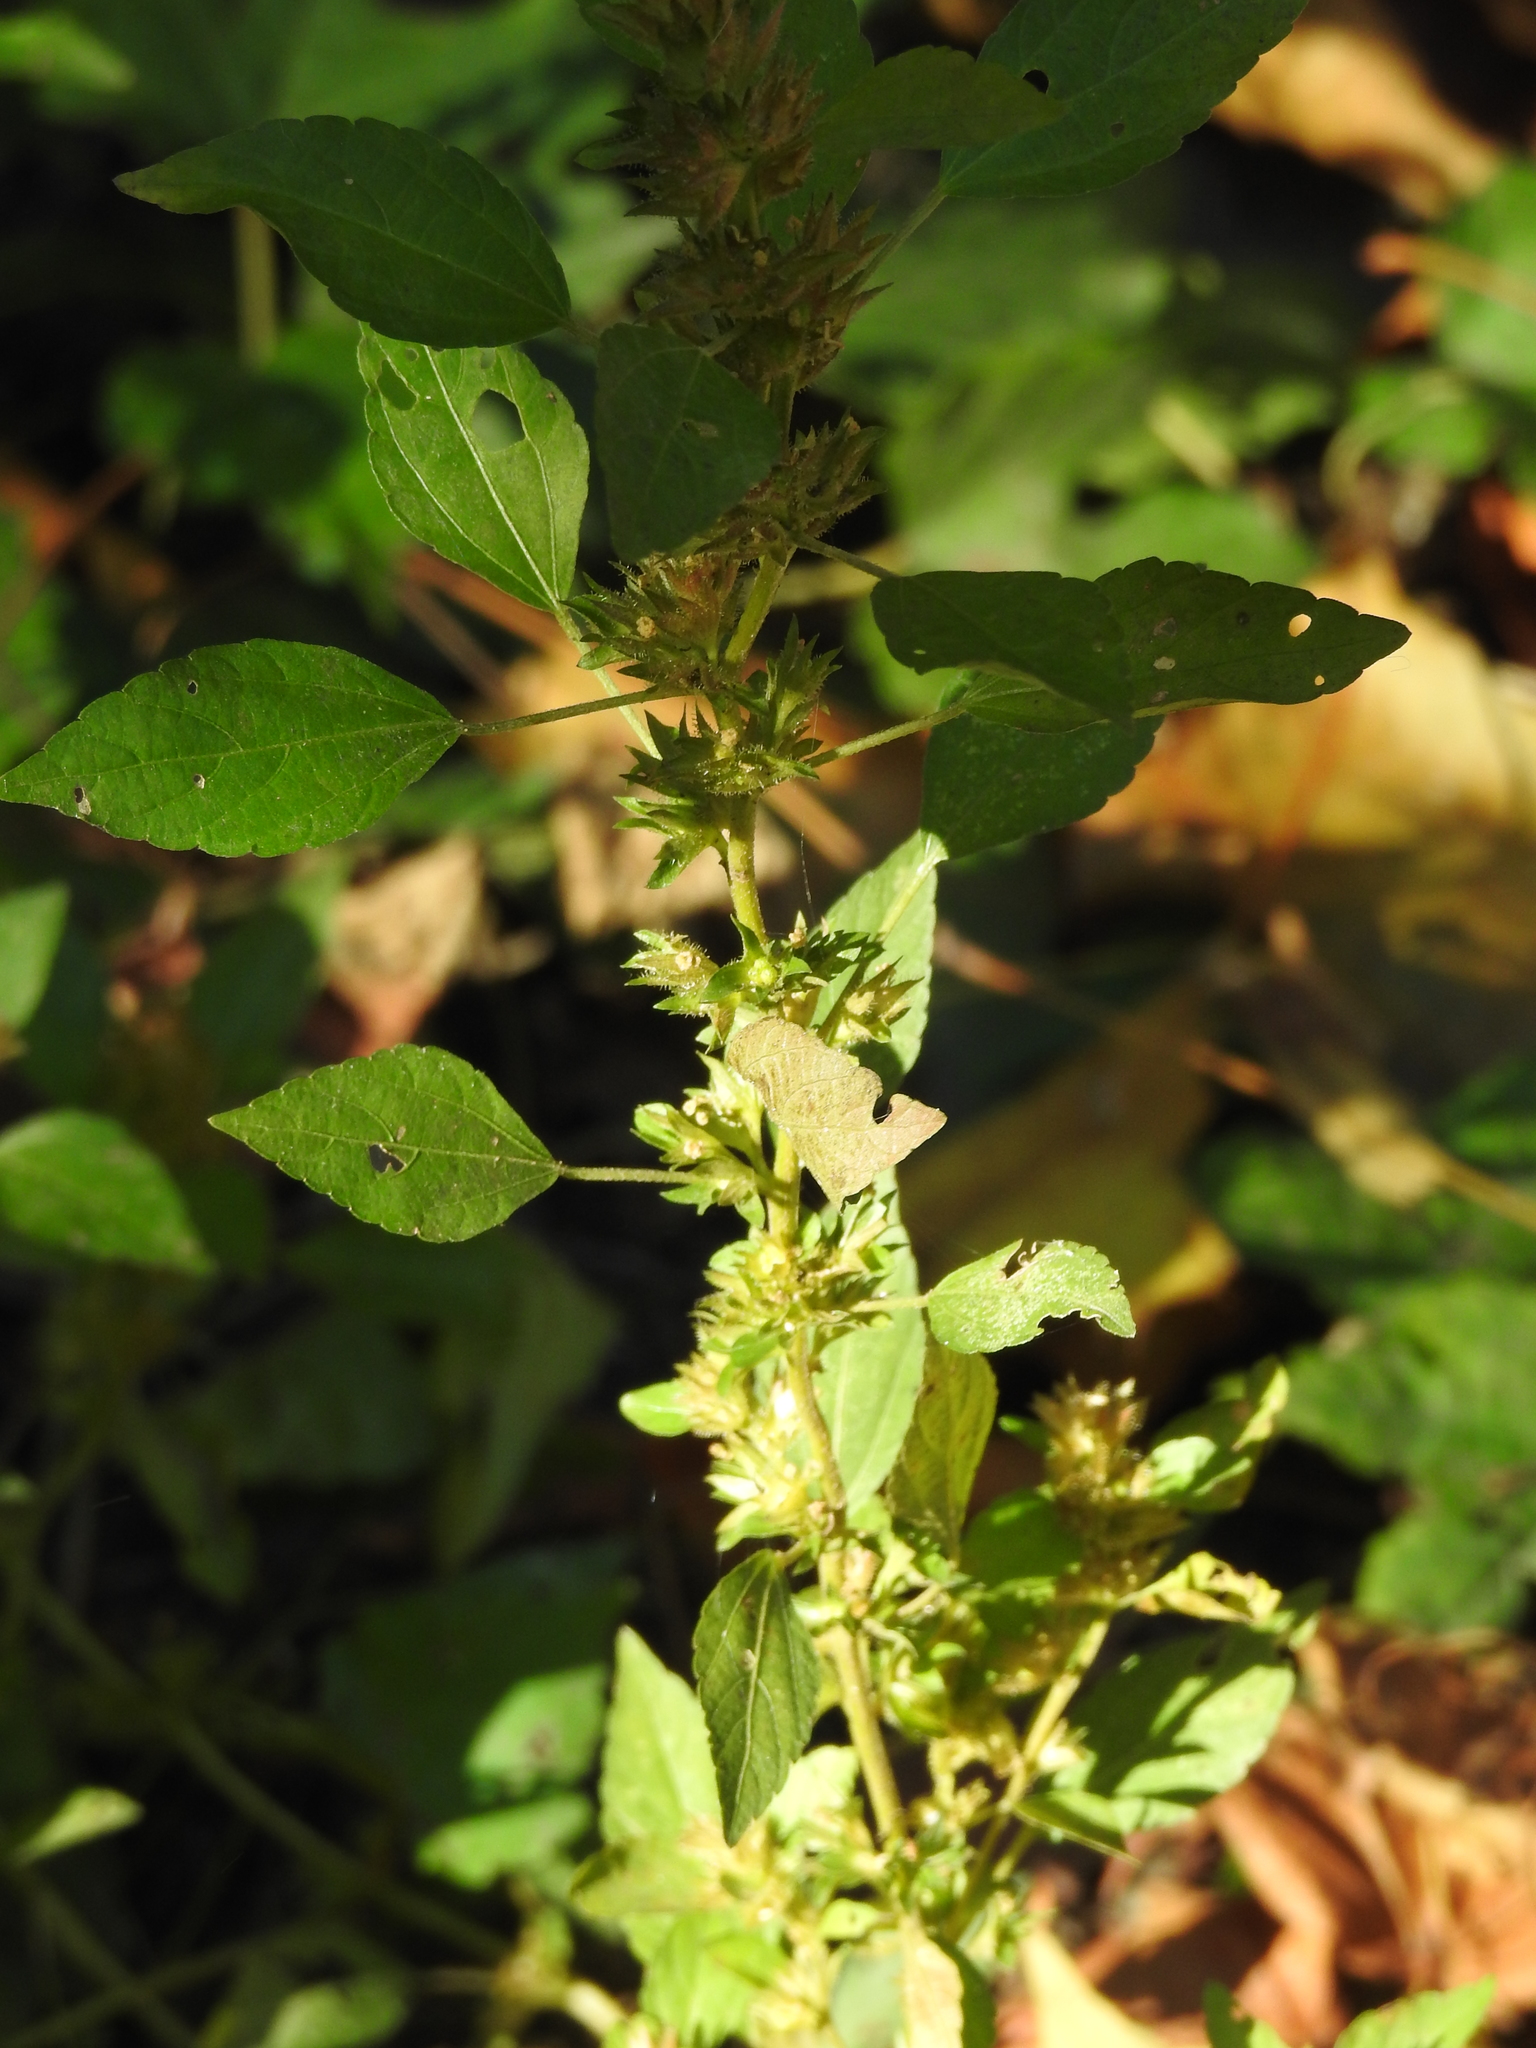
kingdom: Plantae
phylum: Tracheophyta
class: Magnoliopsida
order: Malpighiales
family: Euphorbiaceae
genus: Acalypha
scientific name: Acalypha rhomboidea
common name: Rhombic copperleaf
